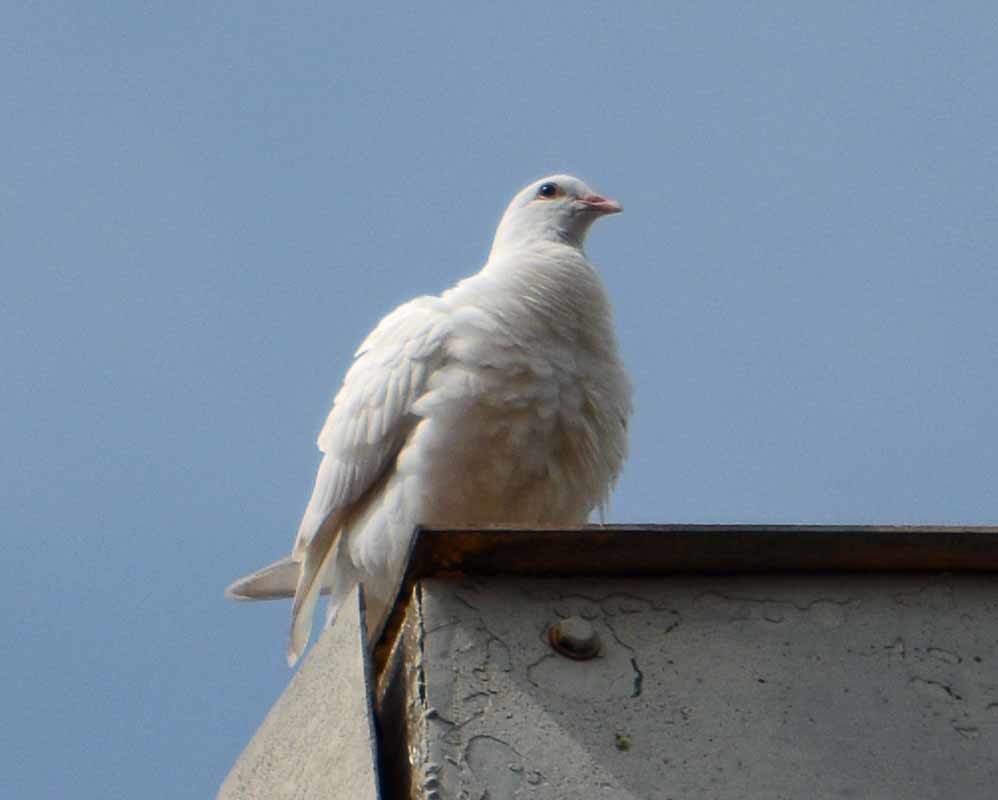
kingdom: Animalia
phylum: Chordata
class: Aves
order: Columbiformes
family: Columbidae
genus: Columba
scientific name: Columba livia
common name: Rock pigeon
